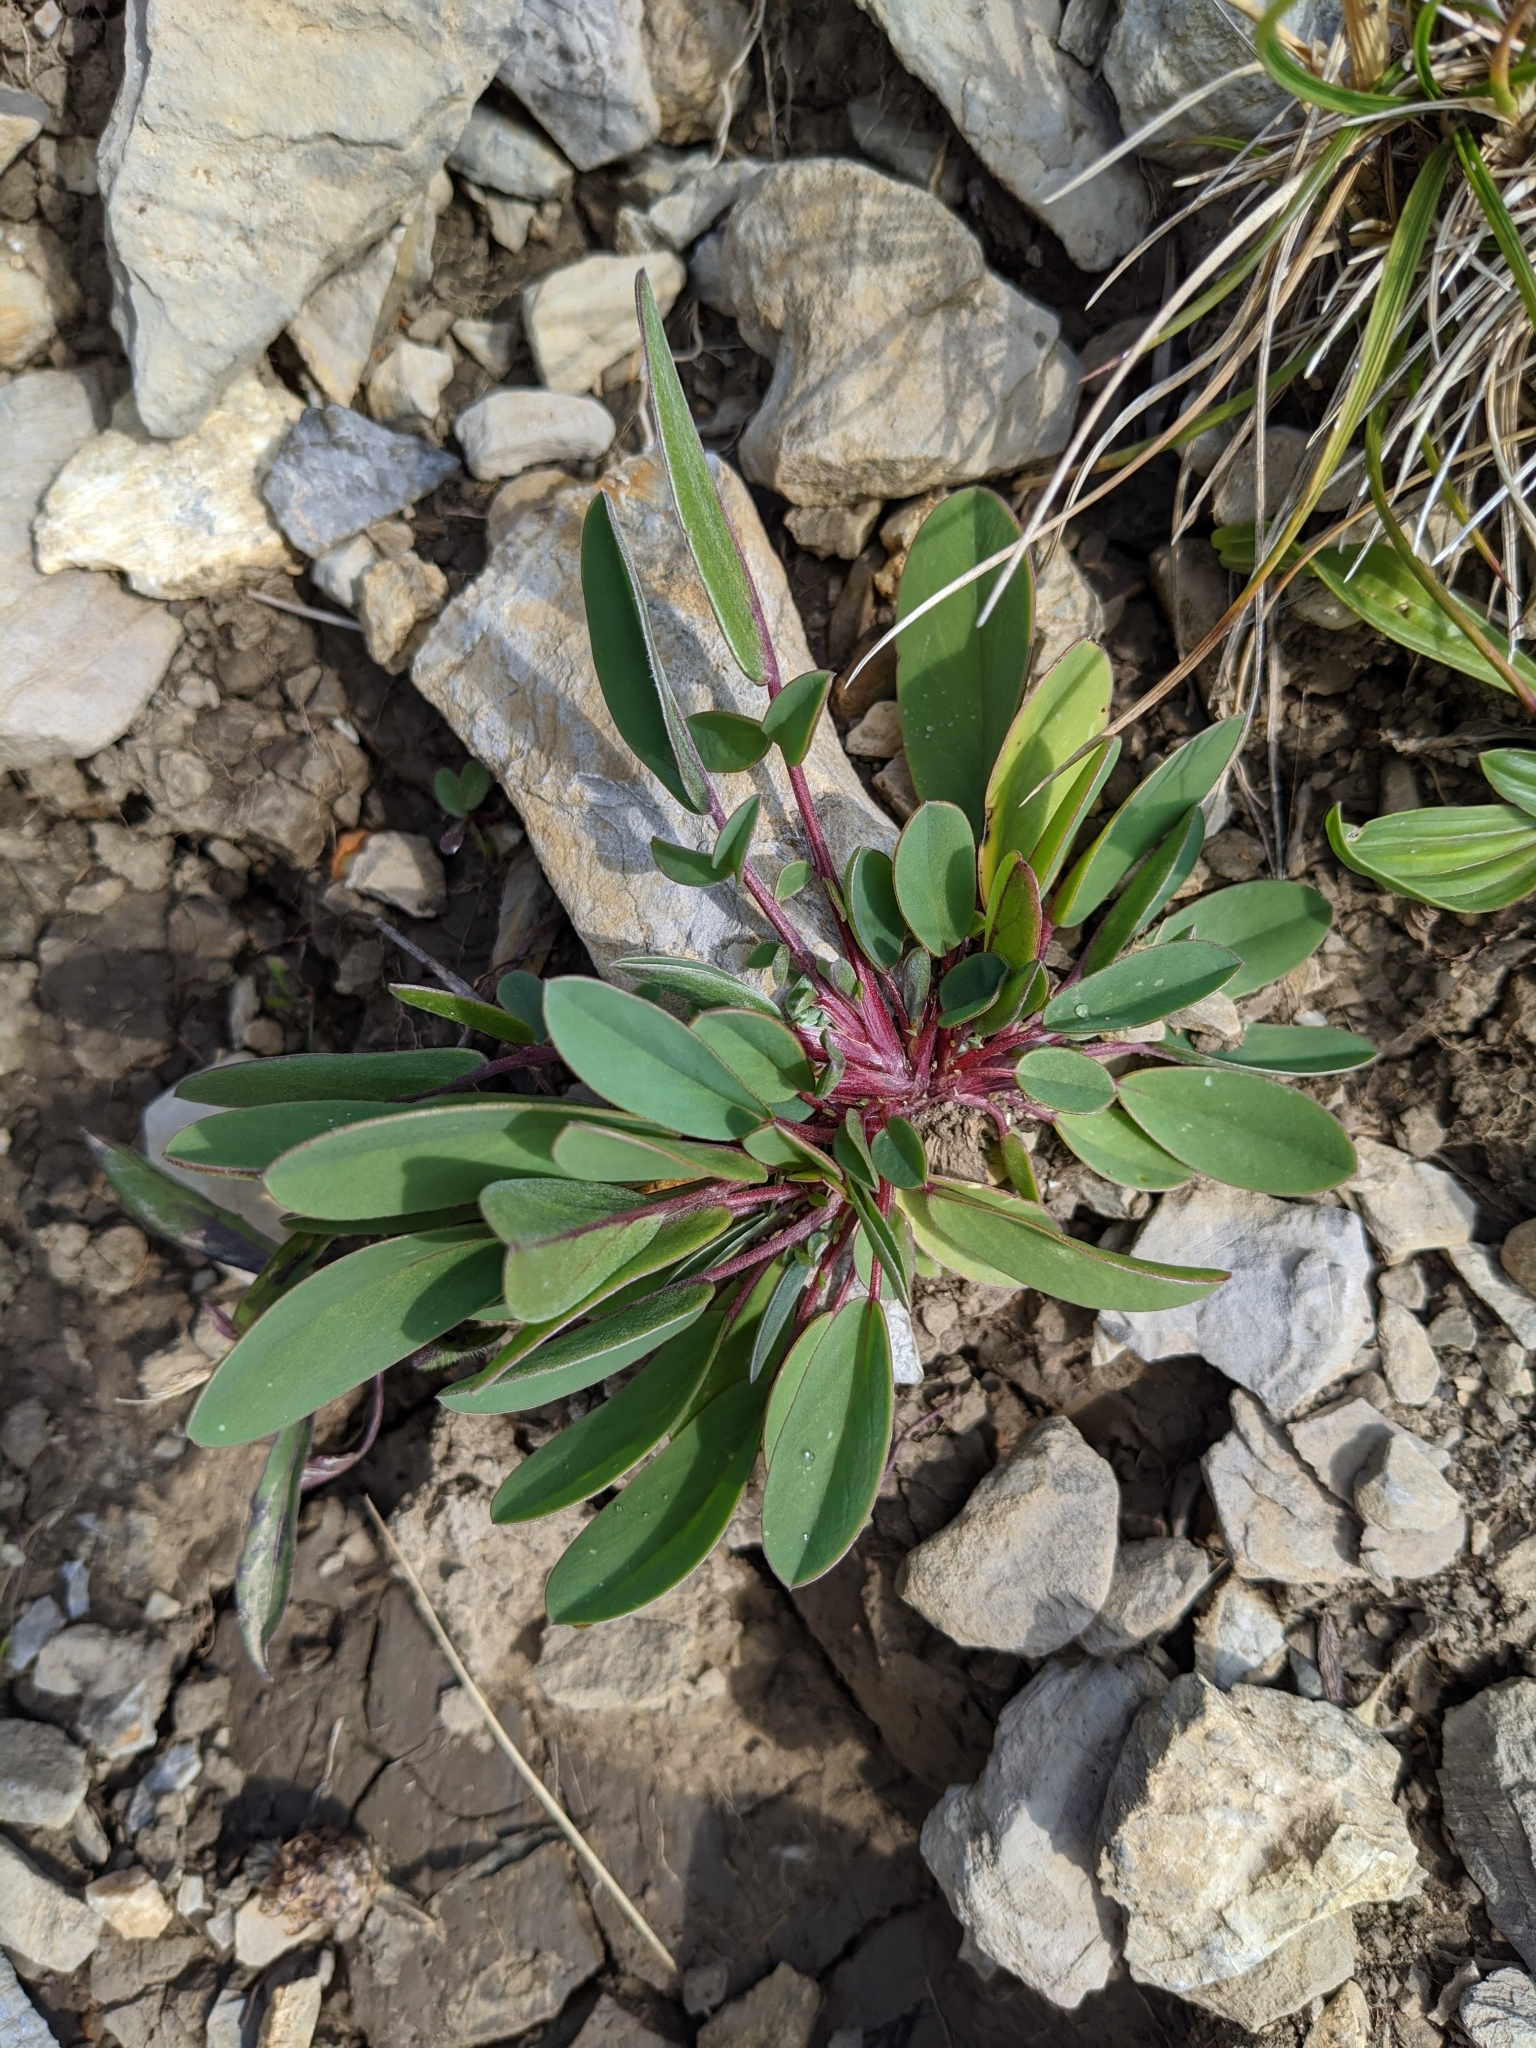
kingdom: Plantae
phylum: Tracheophyta
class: Magnoliopsida
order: Fabales
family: Fabaceae
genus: Anthyllis
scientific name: Anthyllis vulneraria
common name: Kidney vetch
